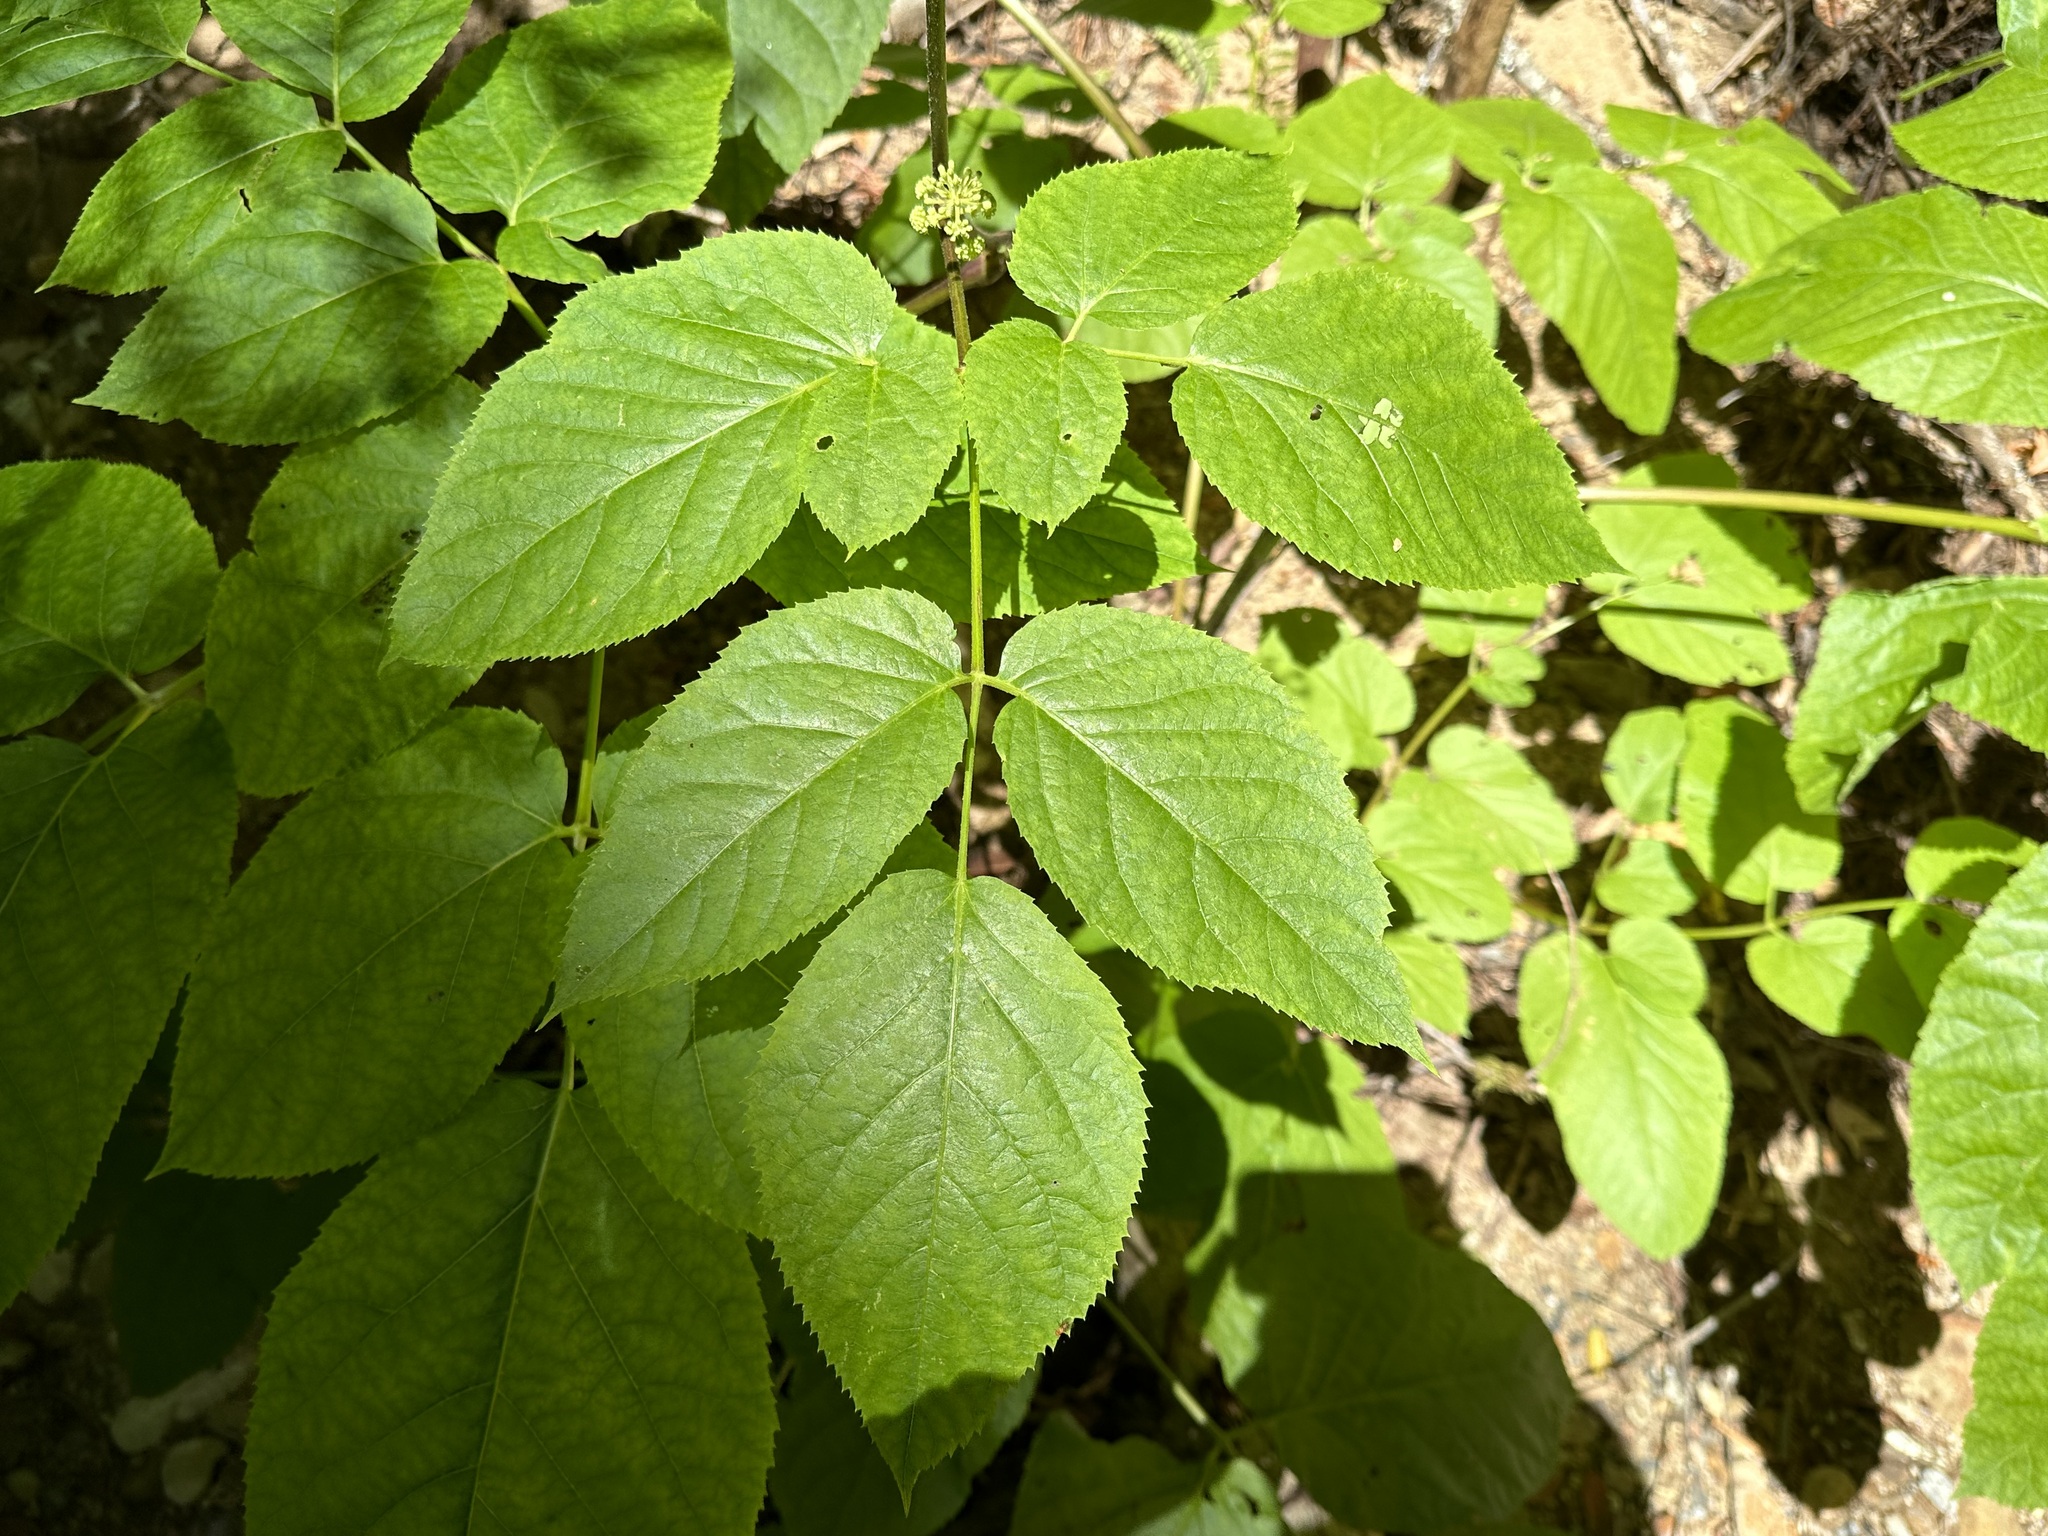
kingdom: Plantae
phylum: Tracheophyta
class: Magnoliopsida
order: Apiales
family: Araliaceae
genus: Aralia
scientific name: Aralia californica
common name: California-ginseng
